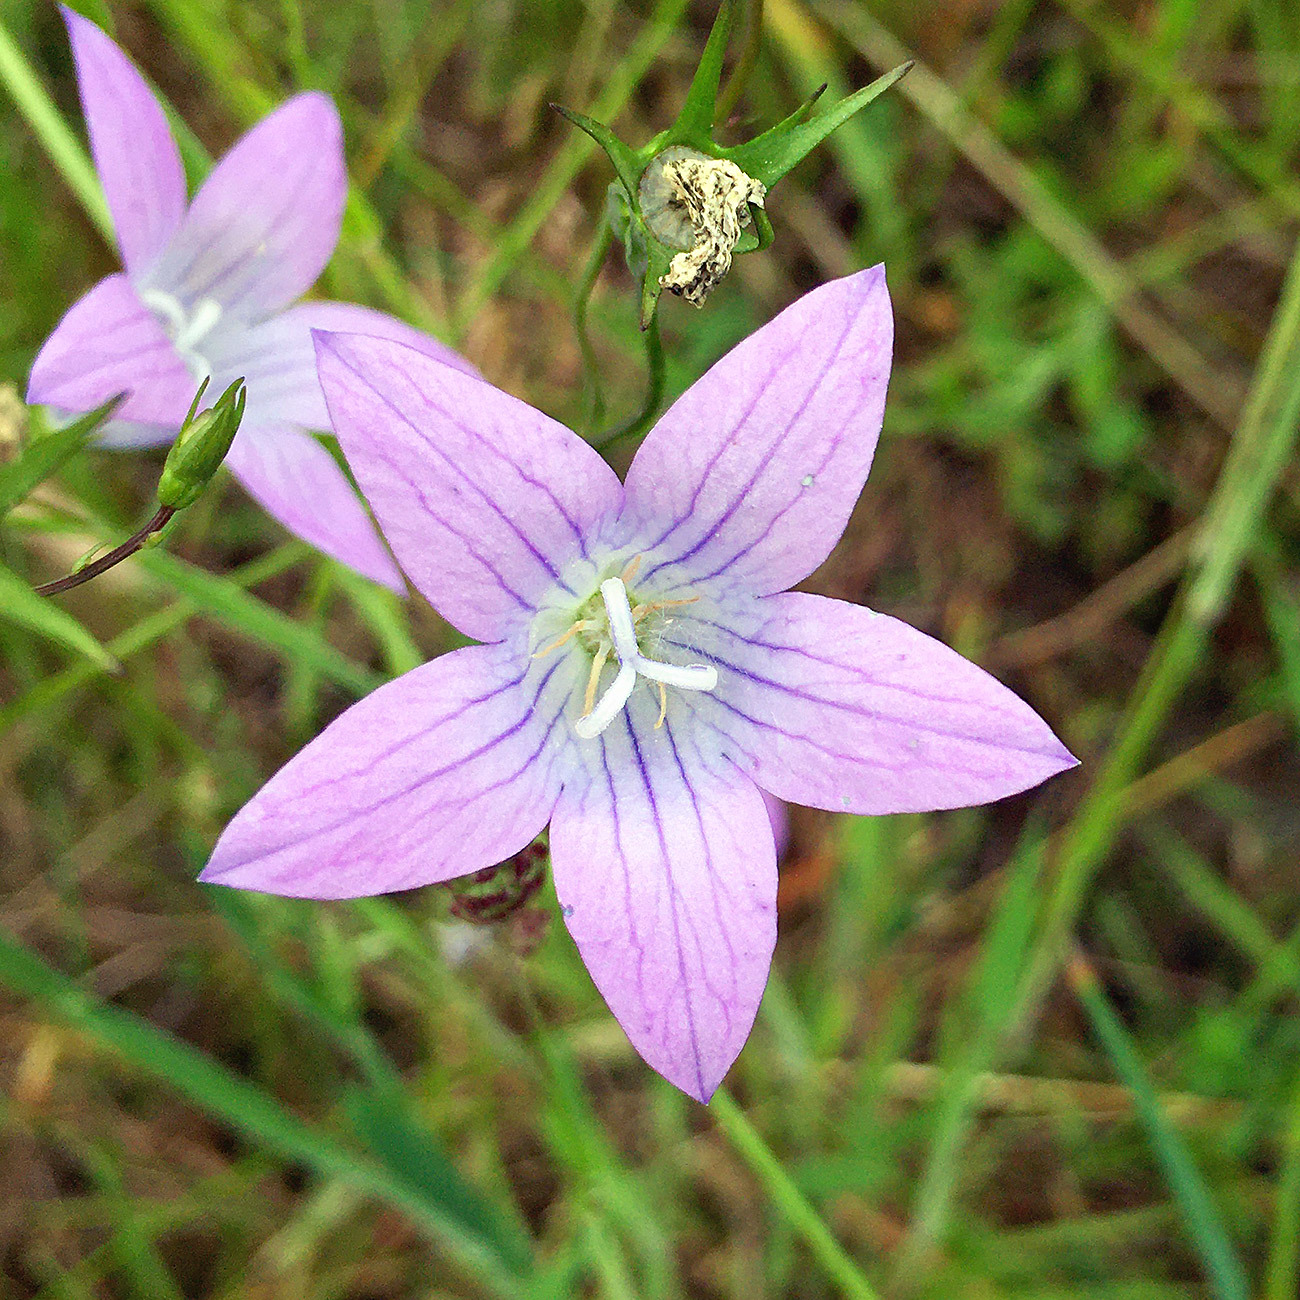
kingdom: Plantae
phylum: Tracheophyta
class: Magnoliopsida
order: Asterales
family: Campanulaceae
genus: Campanula
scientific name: Campanula patula
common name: Spreading bellflower
